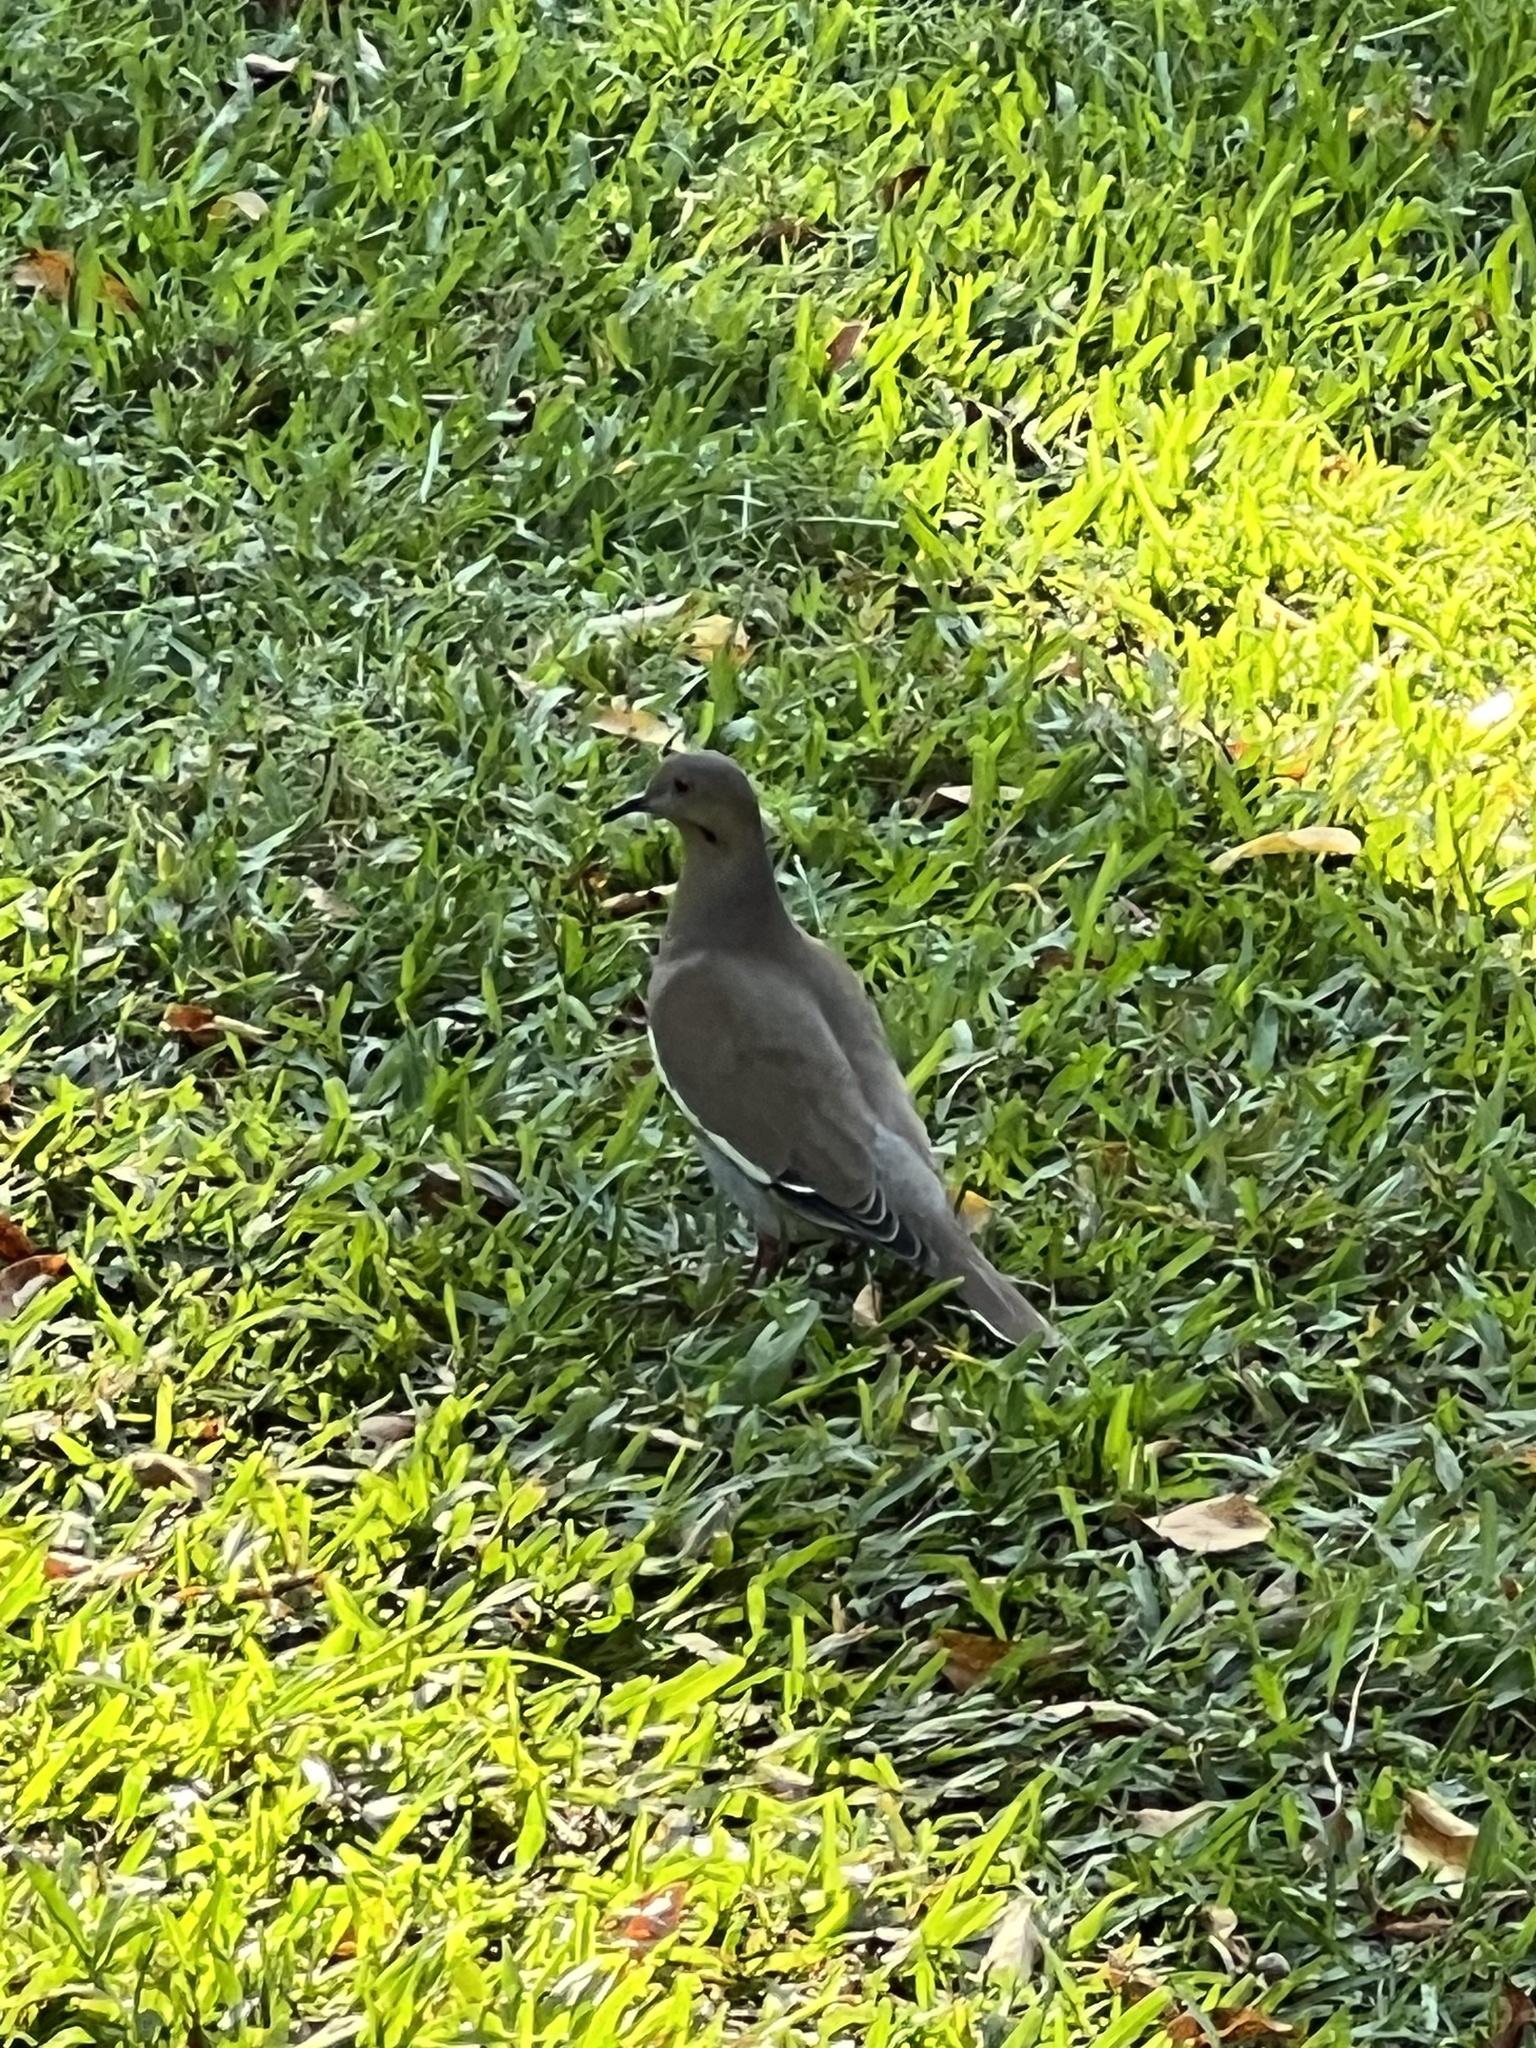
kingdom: Animalia
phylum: Chordata
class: Aves
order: Columbiformes
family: Columbidae
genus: Zenaida
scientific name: Zenaida asiatica
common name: White-winged dove
